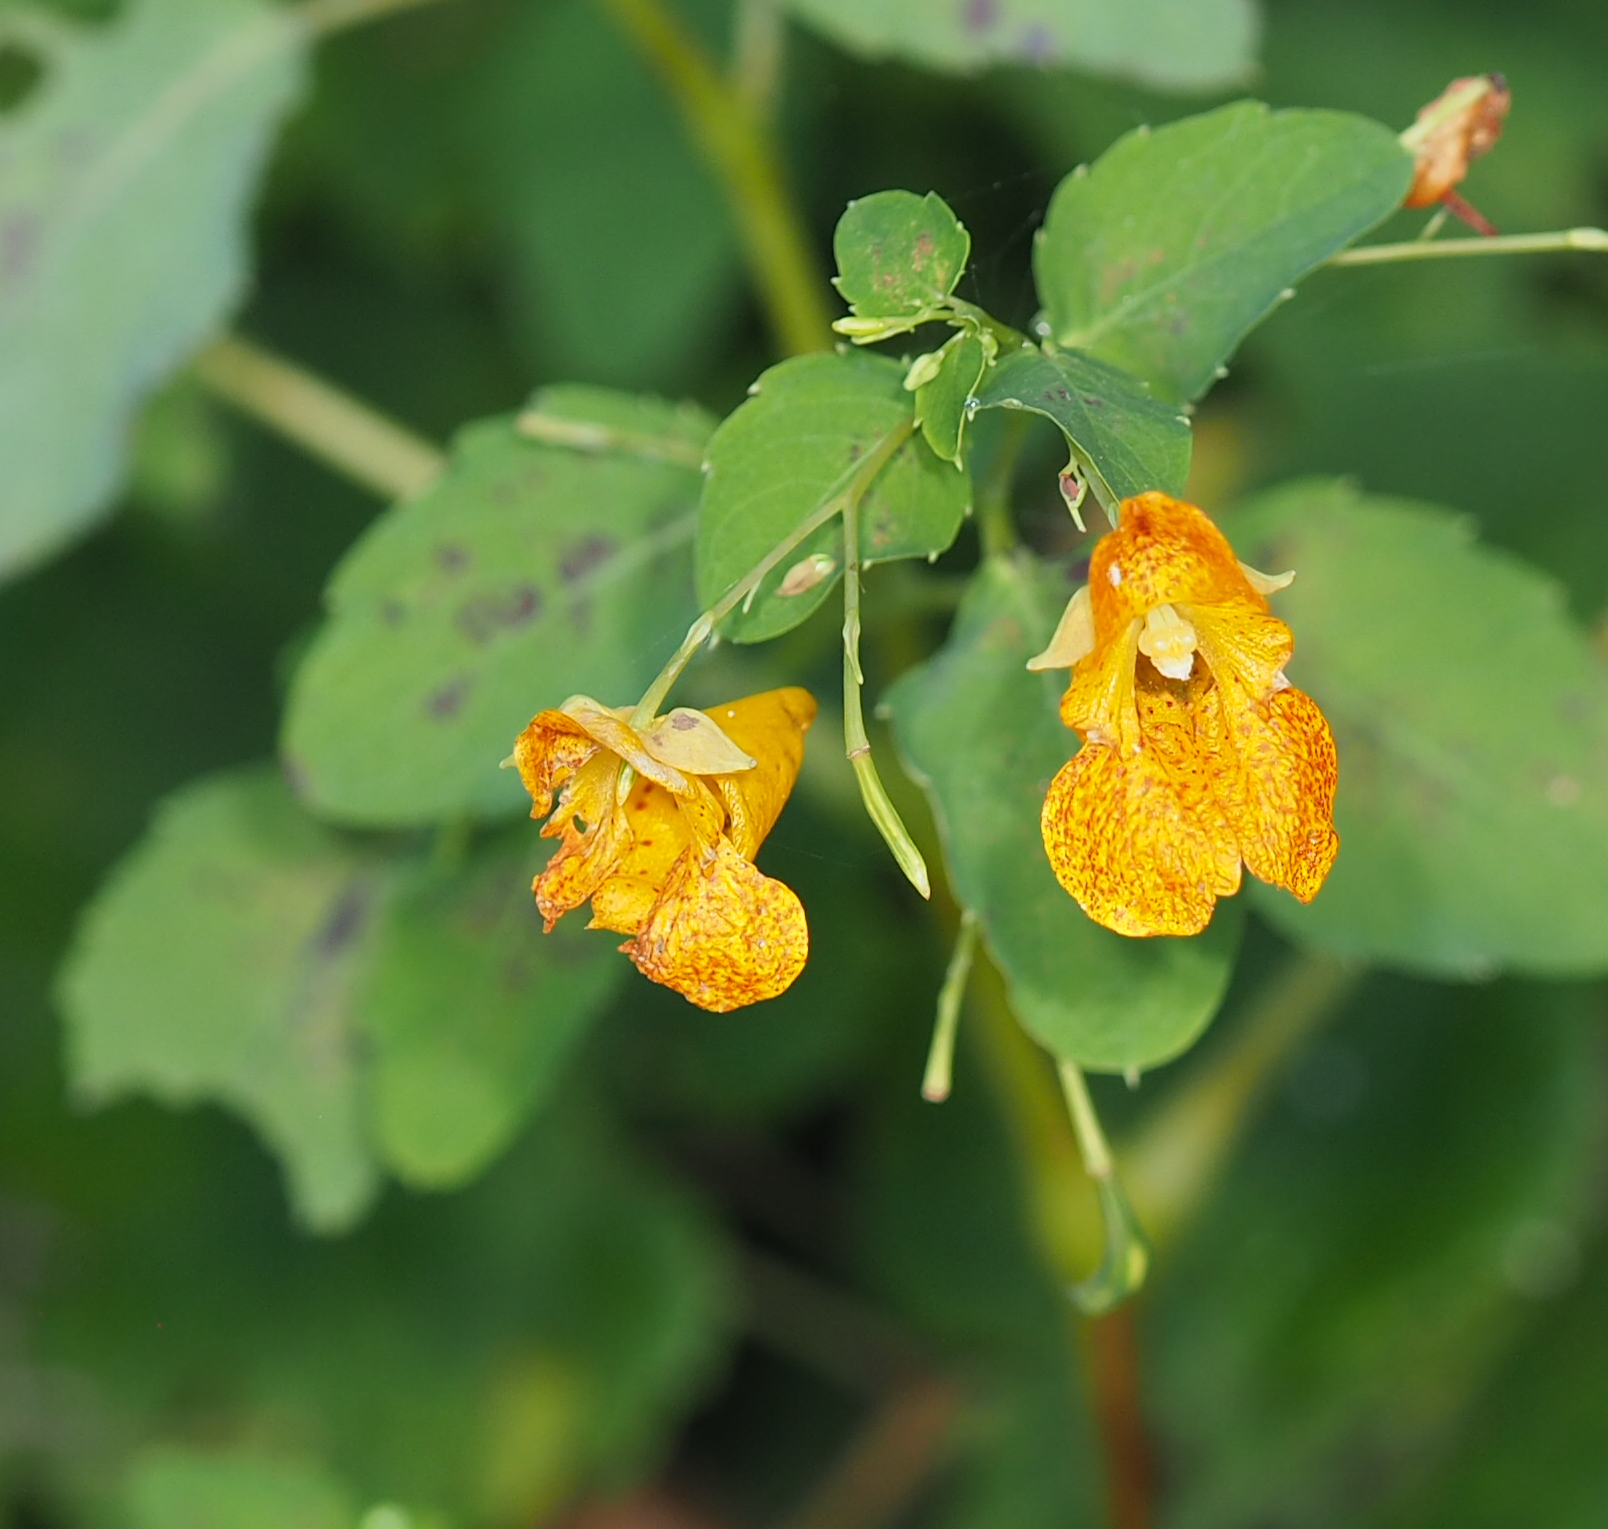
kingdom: Plantae
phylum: Tracheophyta
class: Magnoliopsida
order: Ericales
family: Balsaminaceae
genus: Impatiens
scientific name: Impatiens capensis
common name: Orange balsam
